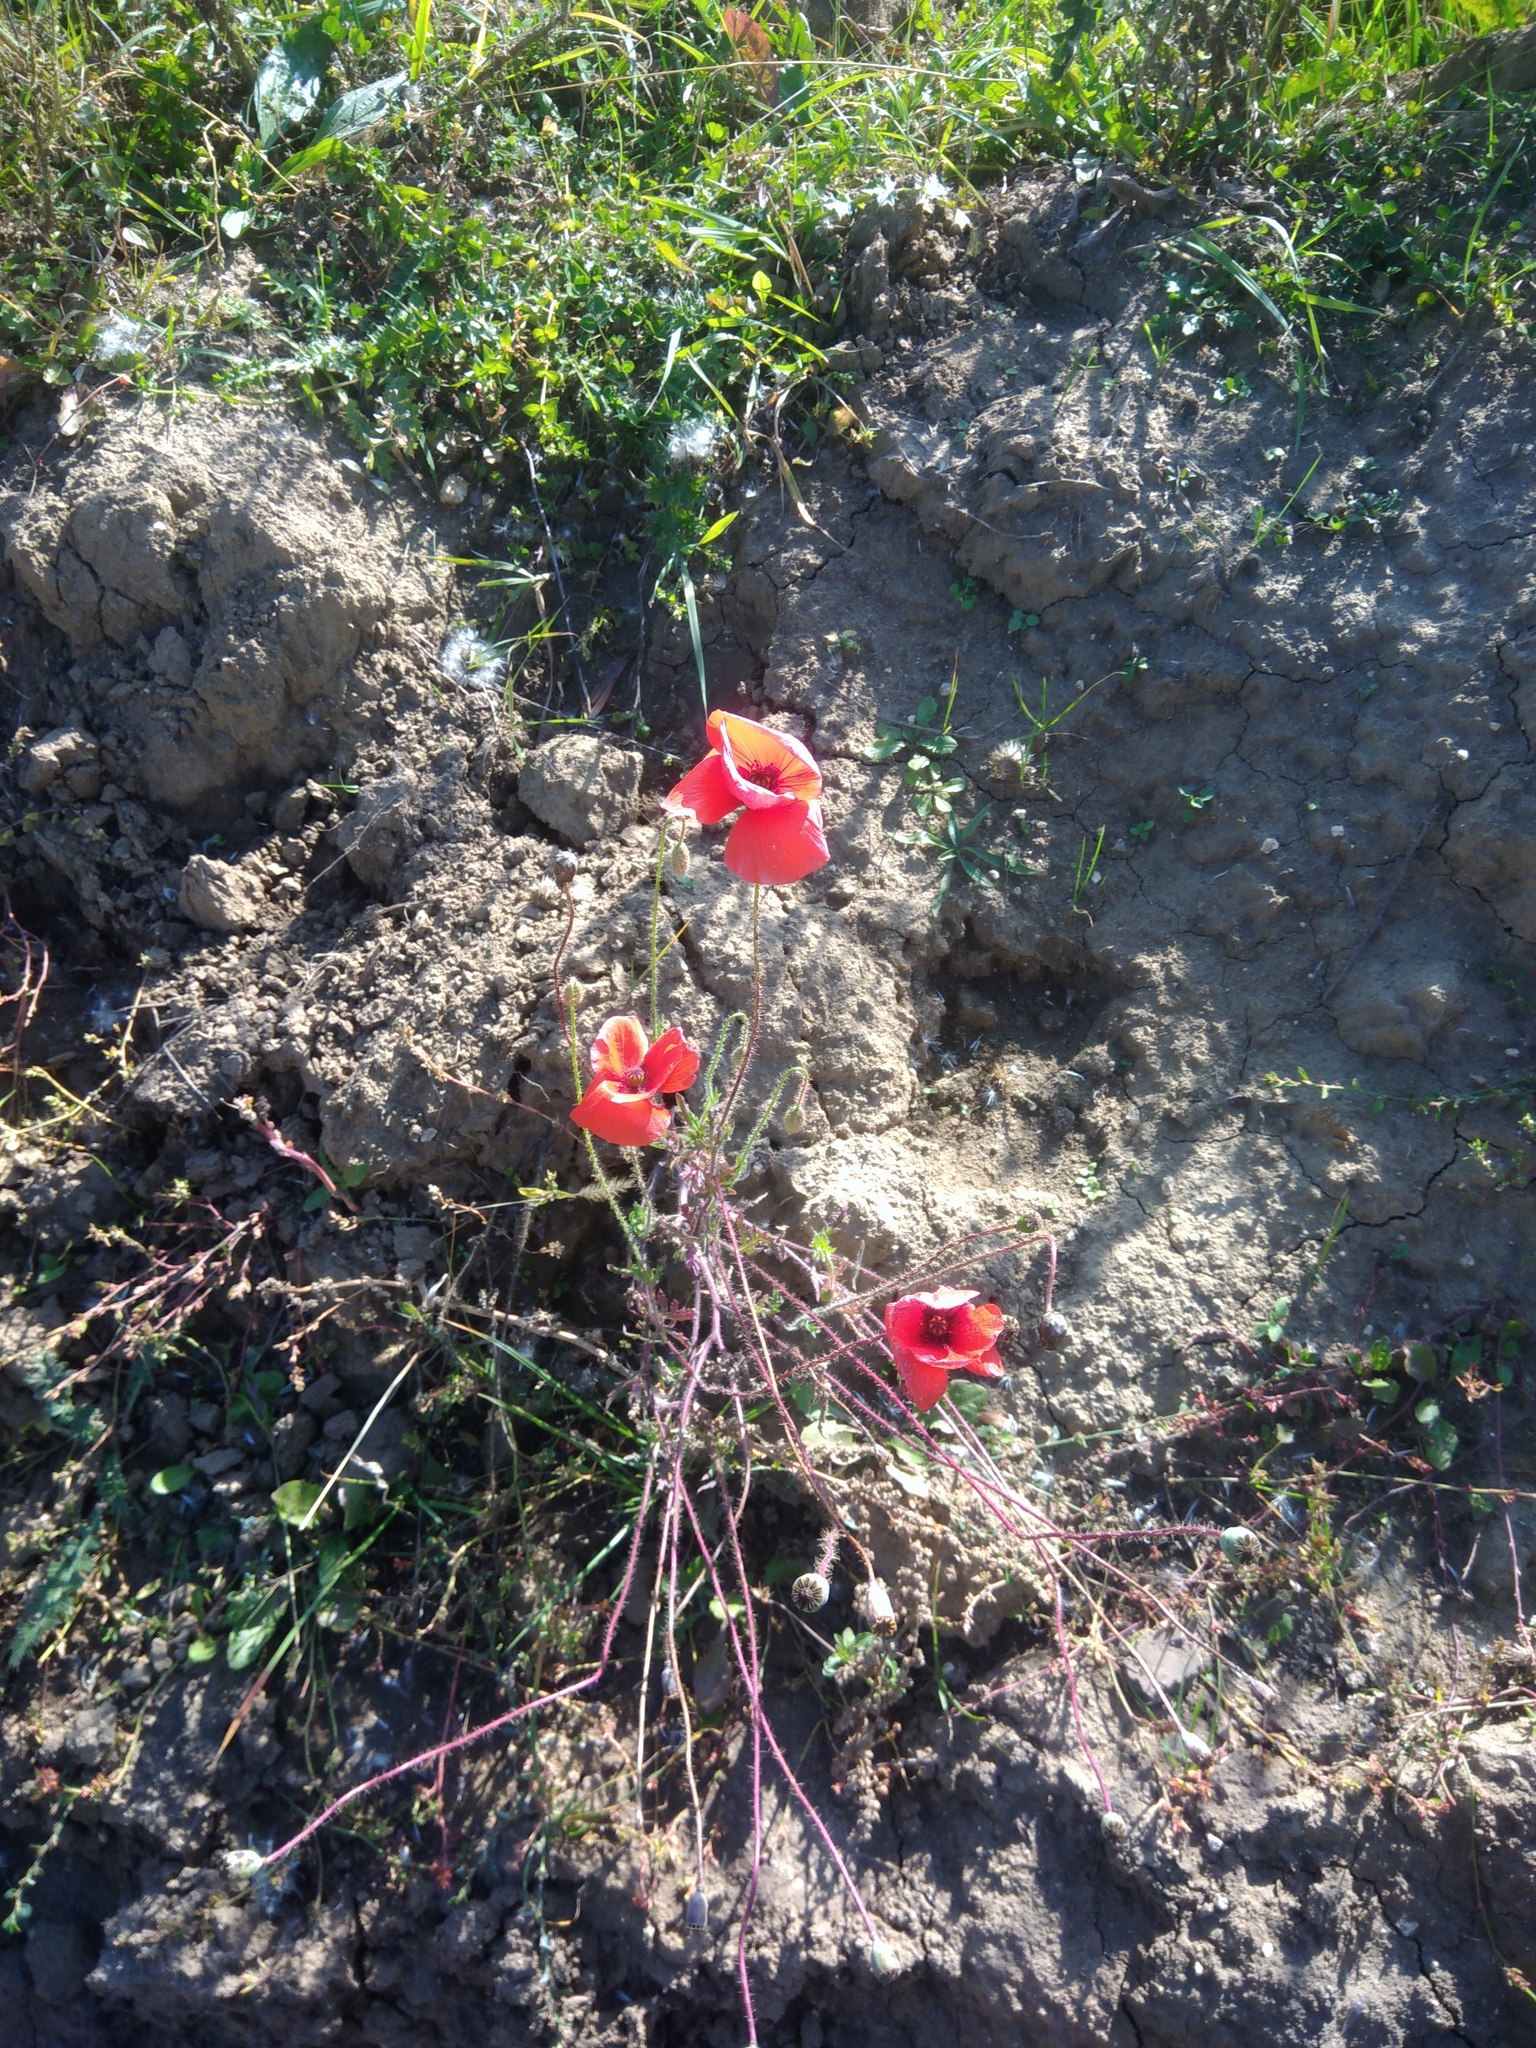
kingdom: Plantae
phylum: Tracheophyta
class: Magnoliopsida
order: Ranunculales
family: Papaveraceae
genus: Papaver
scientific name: Papaver rhoeas
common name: Corn poppy
